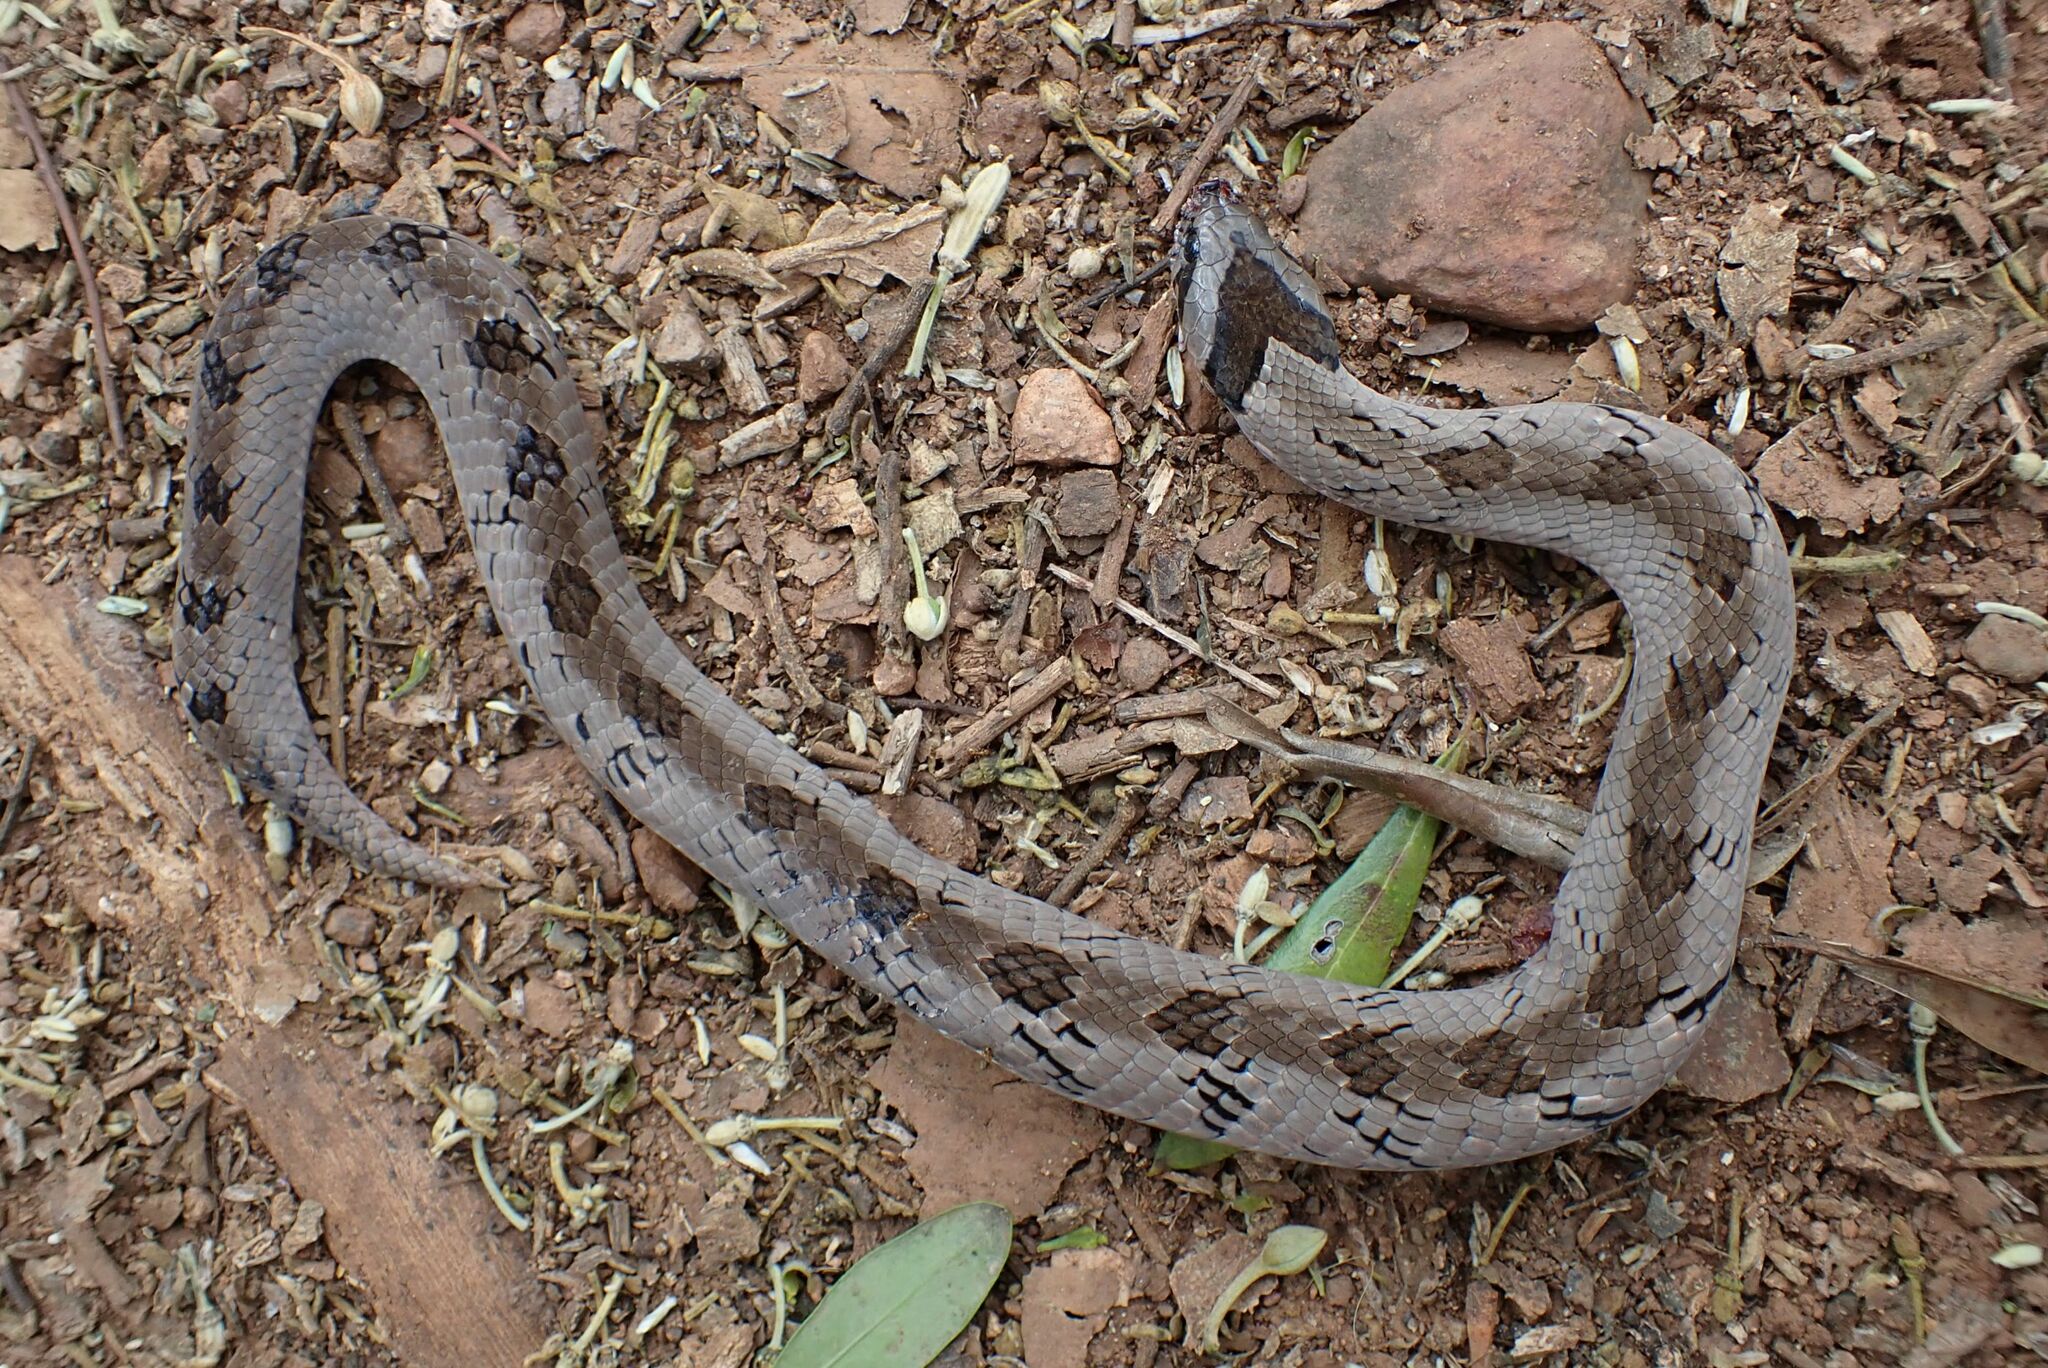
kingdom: Animalia
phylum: Chordata
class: Squamata
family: Viperidae
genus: Causus
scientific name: Causus defilippii
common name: Snouted night adder
